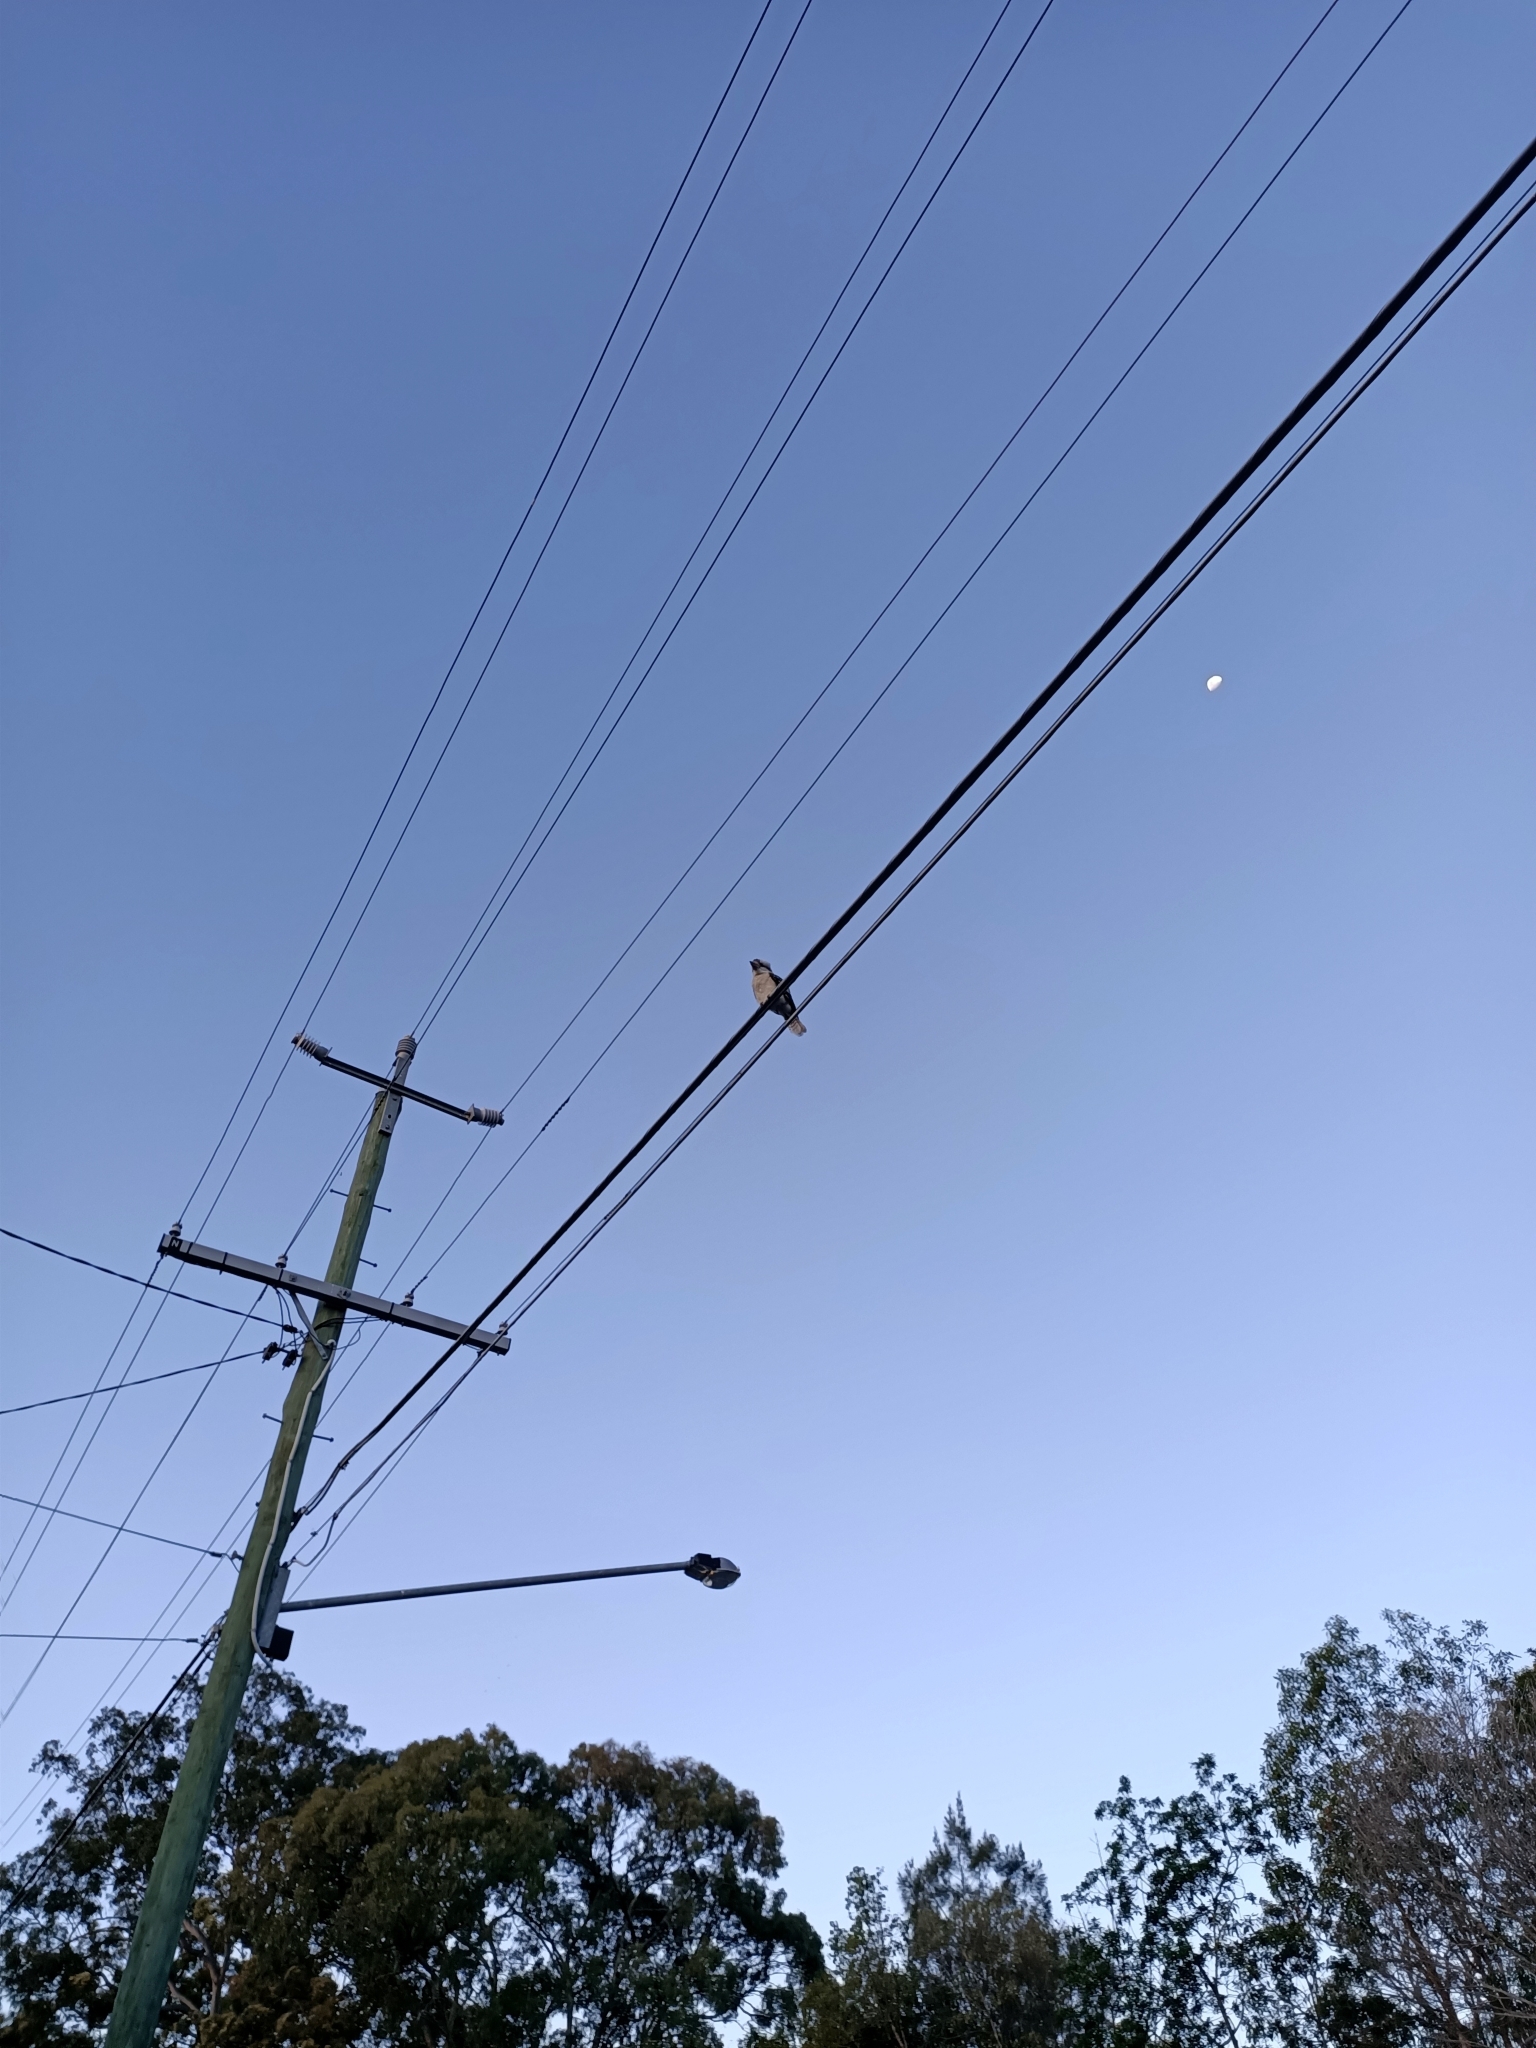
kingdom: Animalia
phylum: Chordata
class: Aves
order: Coraciiformes
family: Alcedinidae
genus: Dacelo
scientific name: Dacelo novaeguineae
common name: Laughing kookaburra
